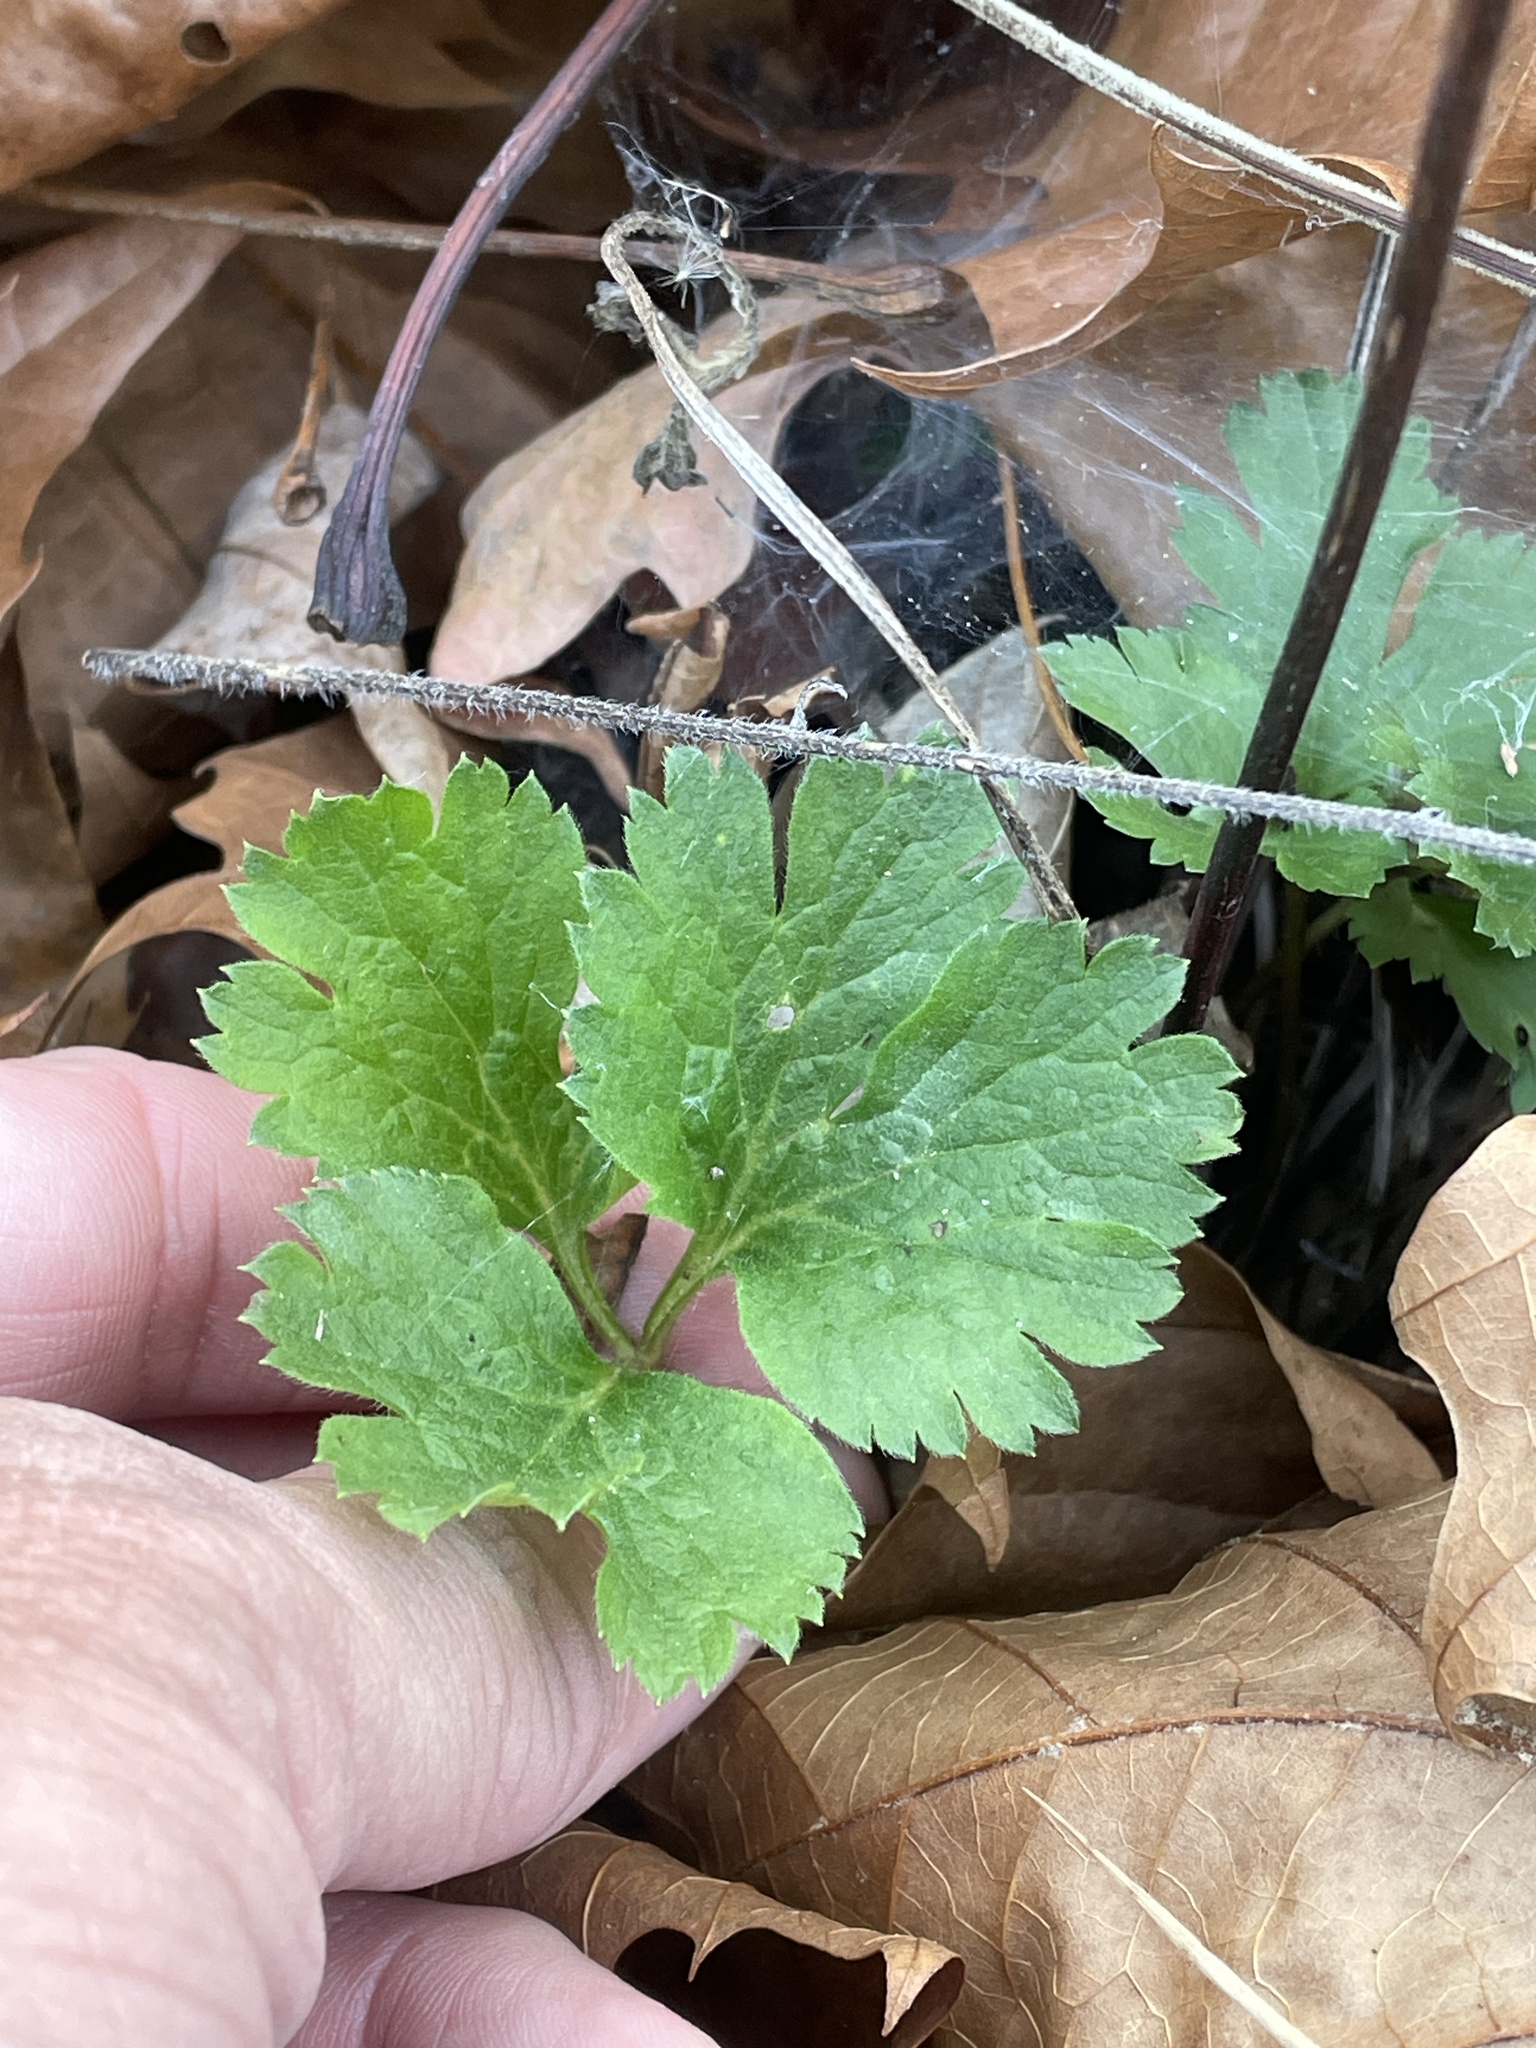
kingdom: Plantae
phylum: Tracheophyta
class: Magnoliopsida
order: Ranunculales
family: Ranunculaceae
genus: Anemone
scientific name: Anemone virginiana
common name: Tall anemone
